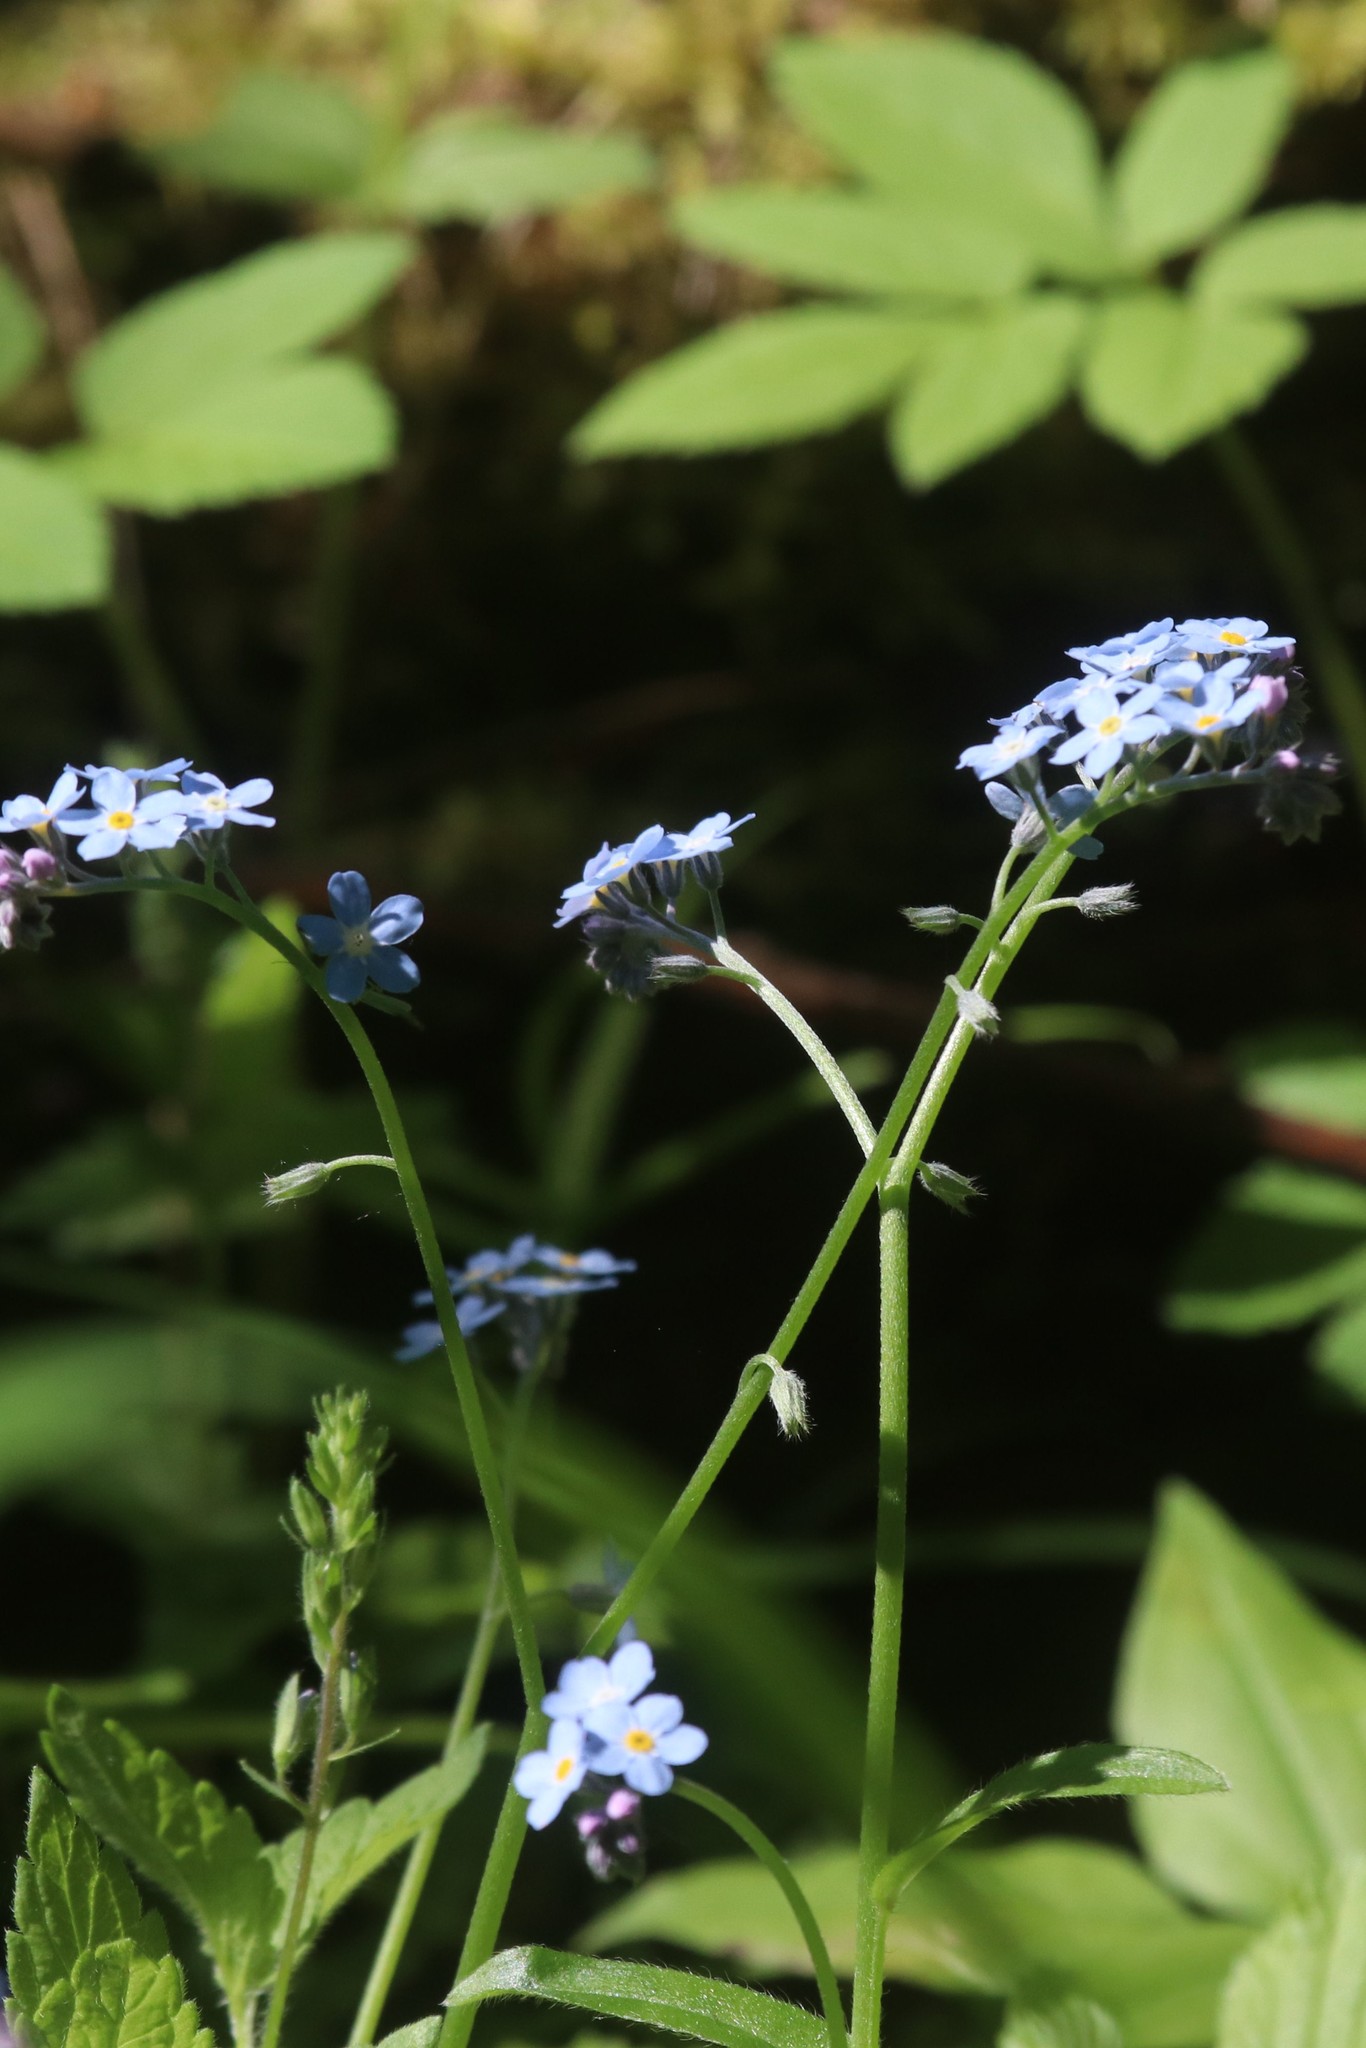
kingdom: Plantae
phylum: Tracheophyta
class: Magnoliopsida
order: Boraginales
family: Boraginaceae
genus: Myosotis
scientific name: Myosotis sylvatica
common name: Wood forget-me-not
